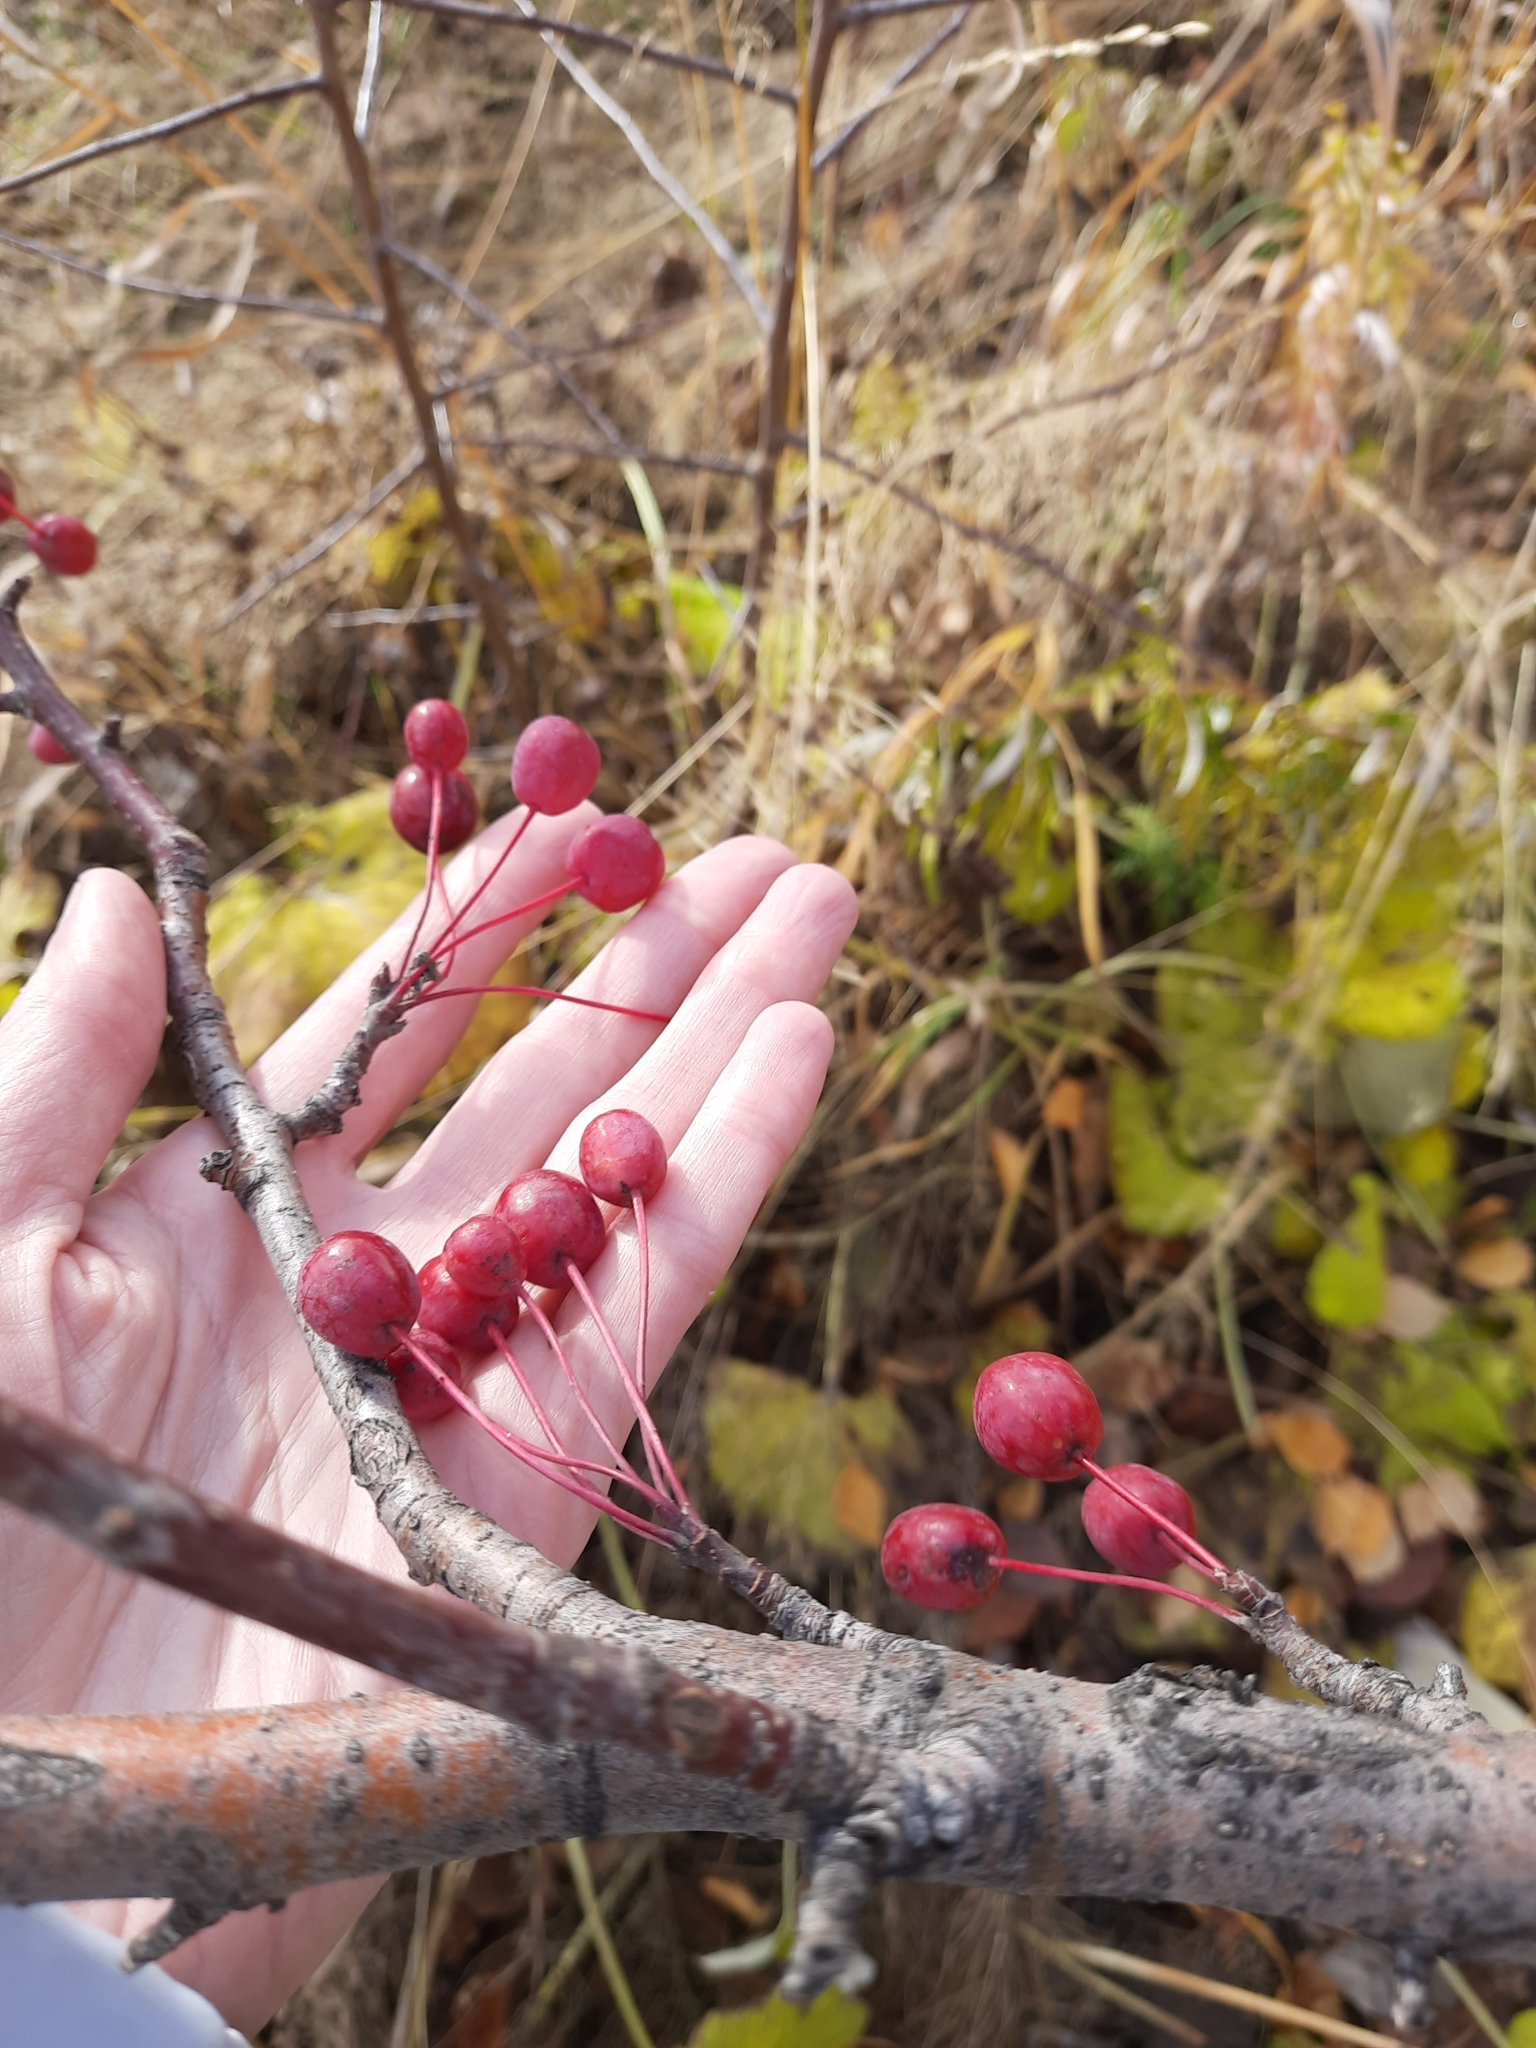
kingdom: Plantae
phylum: Tracheophyta
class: Magnoliopsida
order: Rosales
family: Rosaceae
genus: Malus
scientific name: Malus baccata
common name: Siberian crab
